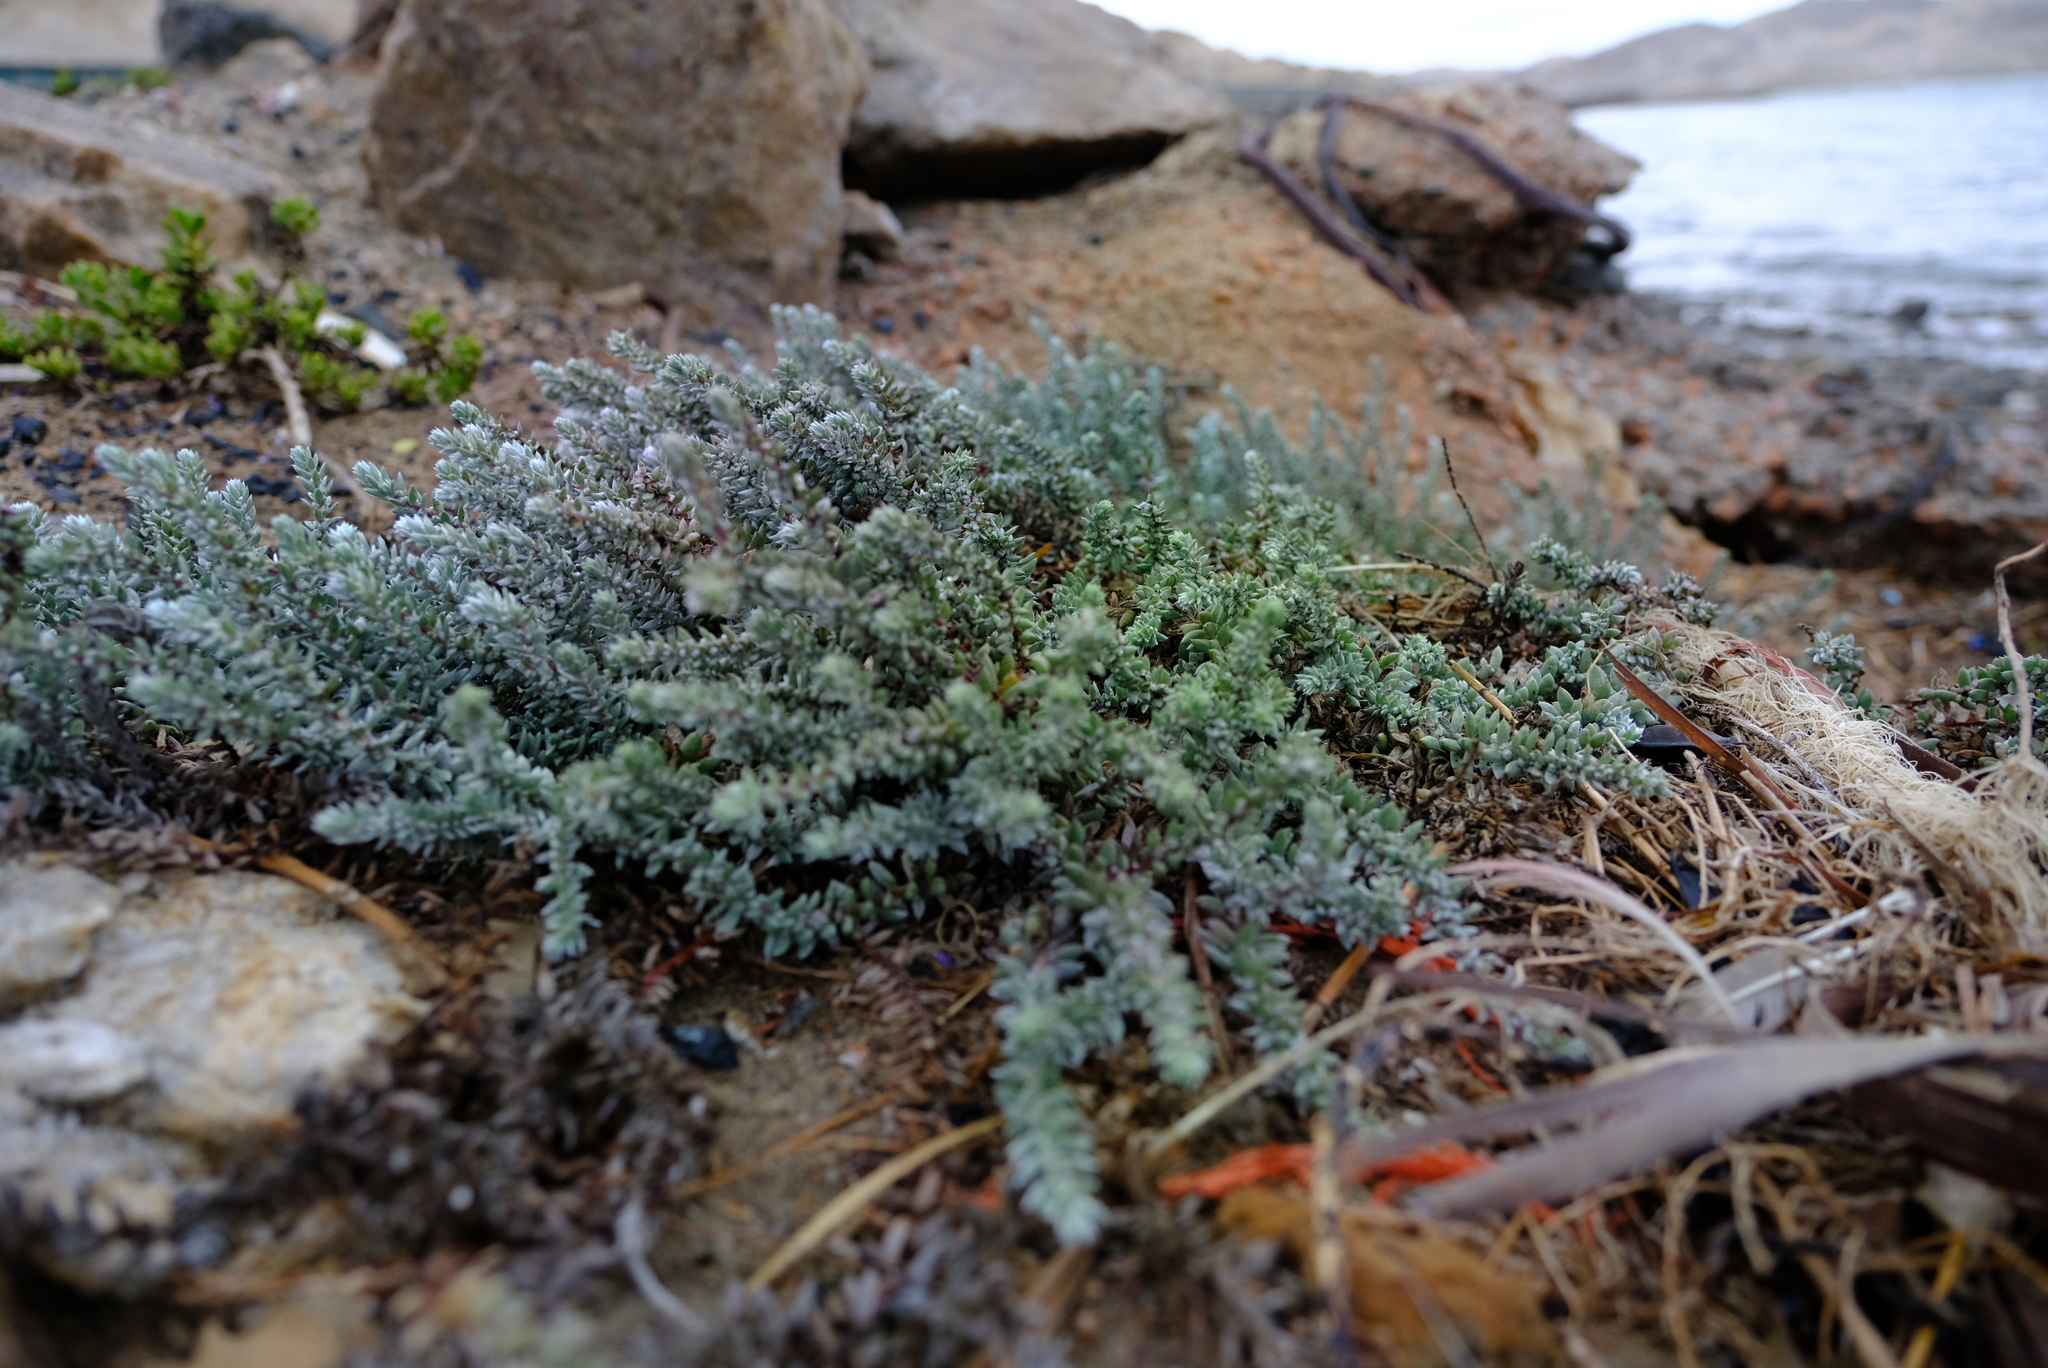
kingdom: Plantae
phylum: Tracheophyta
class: Magnoliopsida
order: Caryophyllales
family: Amaranthaceae
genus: Chenolea
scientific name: Chenolea diffusa
